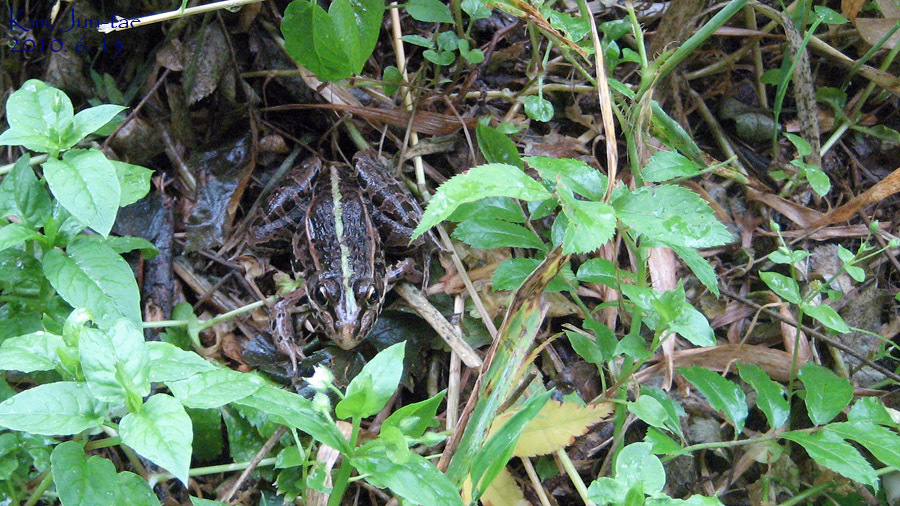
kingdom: Animalia
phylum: Chordata
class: Amphibia
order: Anura
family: Ranidae
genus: Pelophylax
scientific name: Pelophylax nigromaculatus
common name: Black-spotted pond frog
